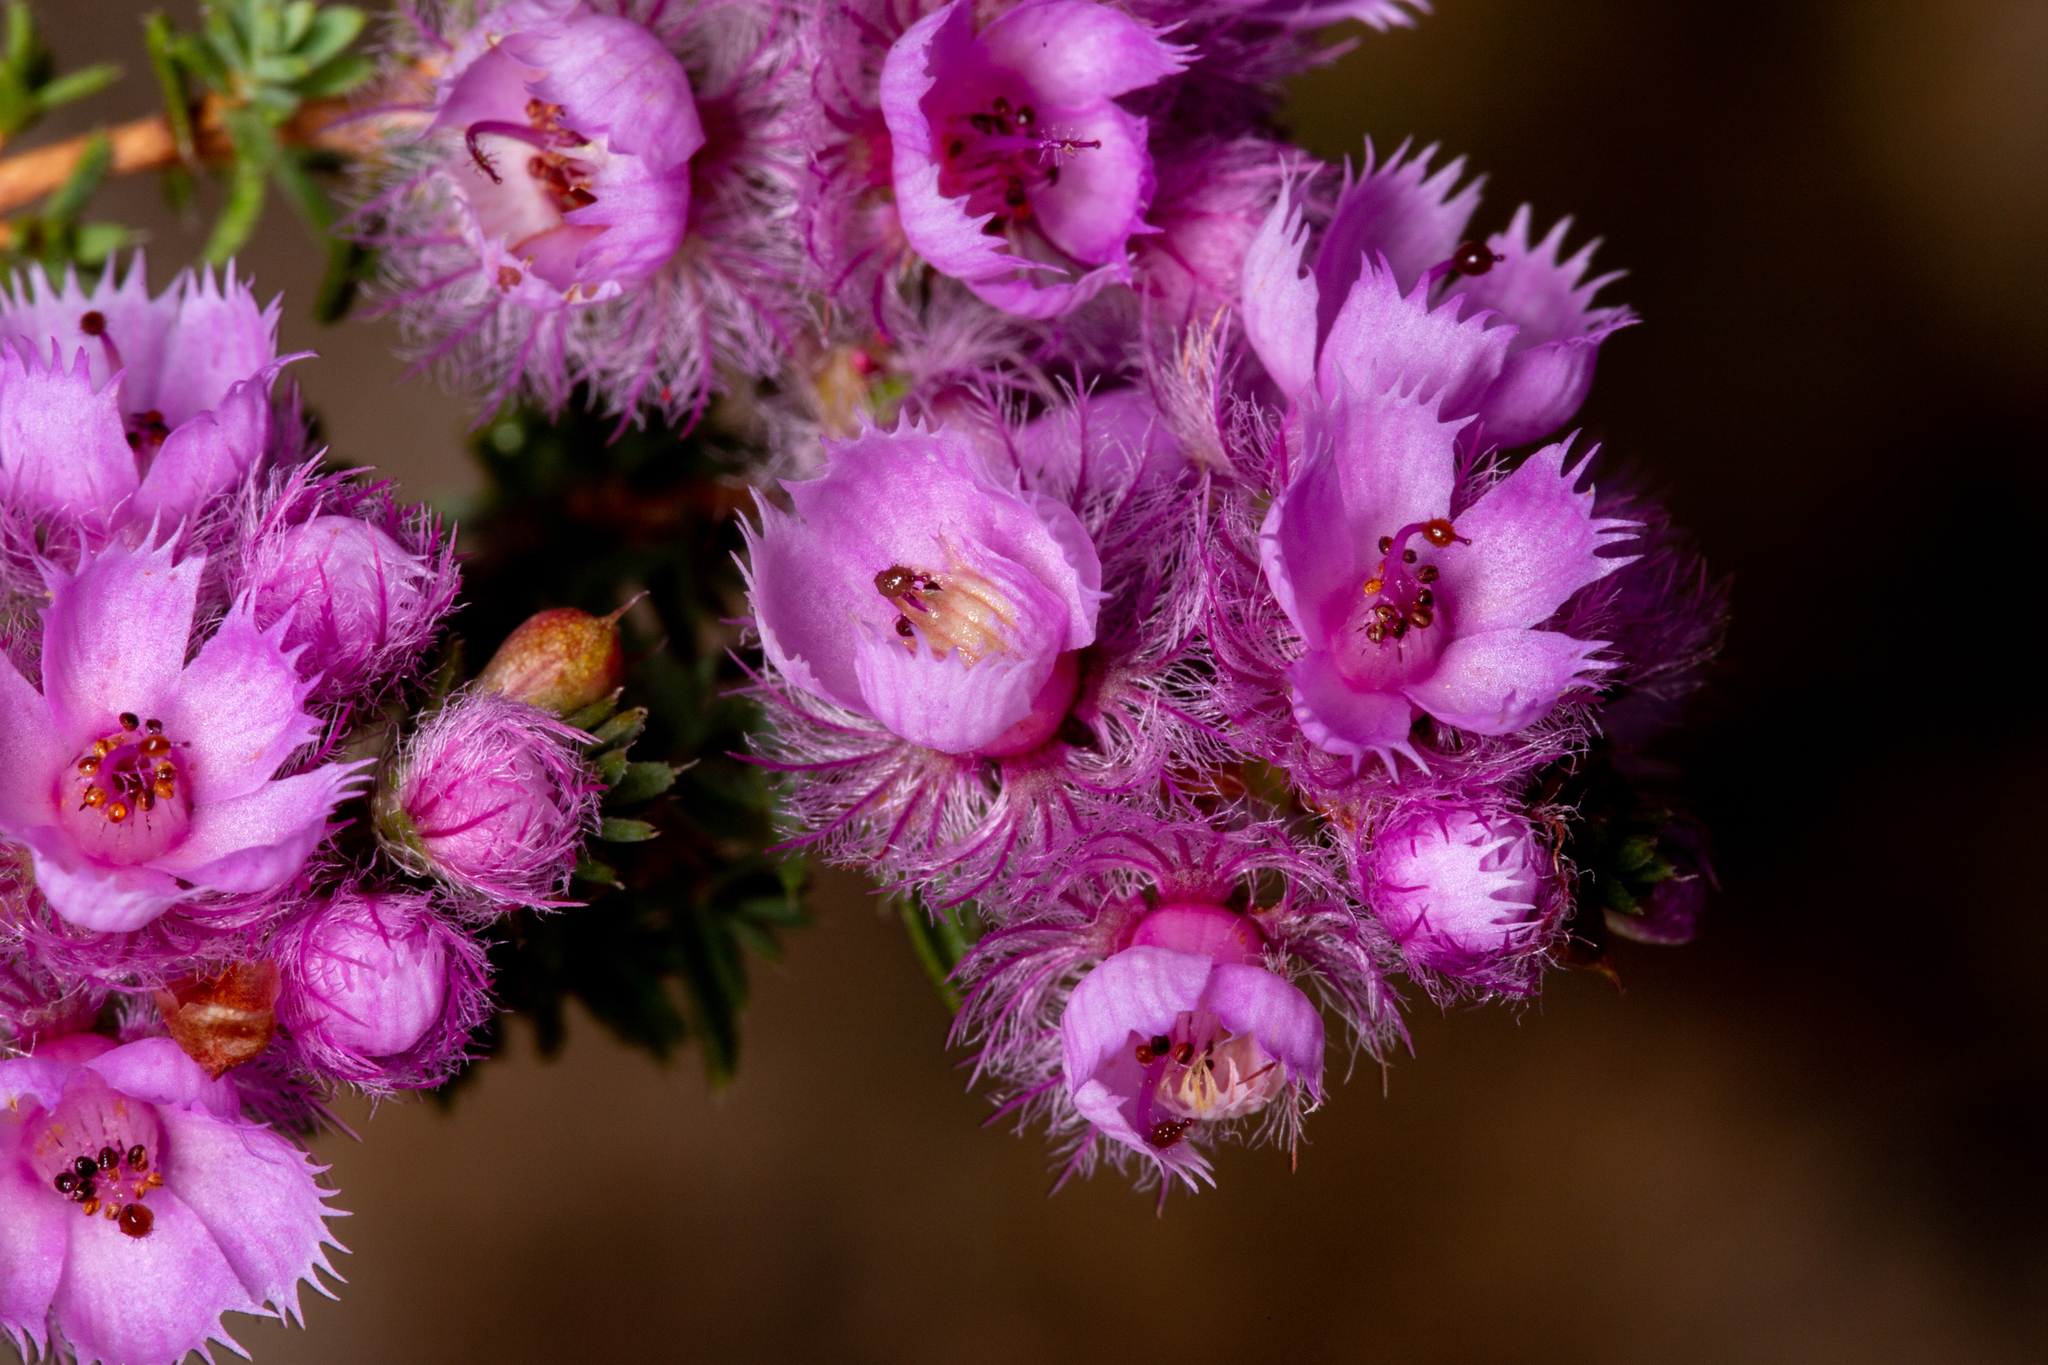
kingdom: Plantae
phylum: Tracheophyta
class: Magnoliopsida
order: Myrtales
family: Myrtaceae
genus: Verticordia
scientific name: Verticordia pennigera
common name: Native-tea
